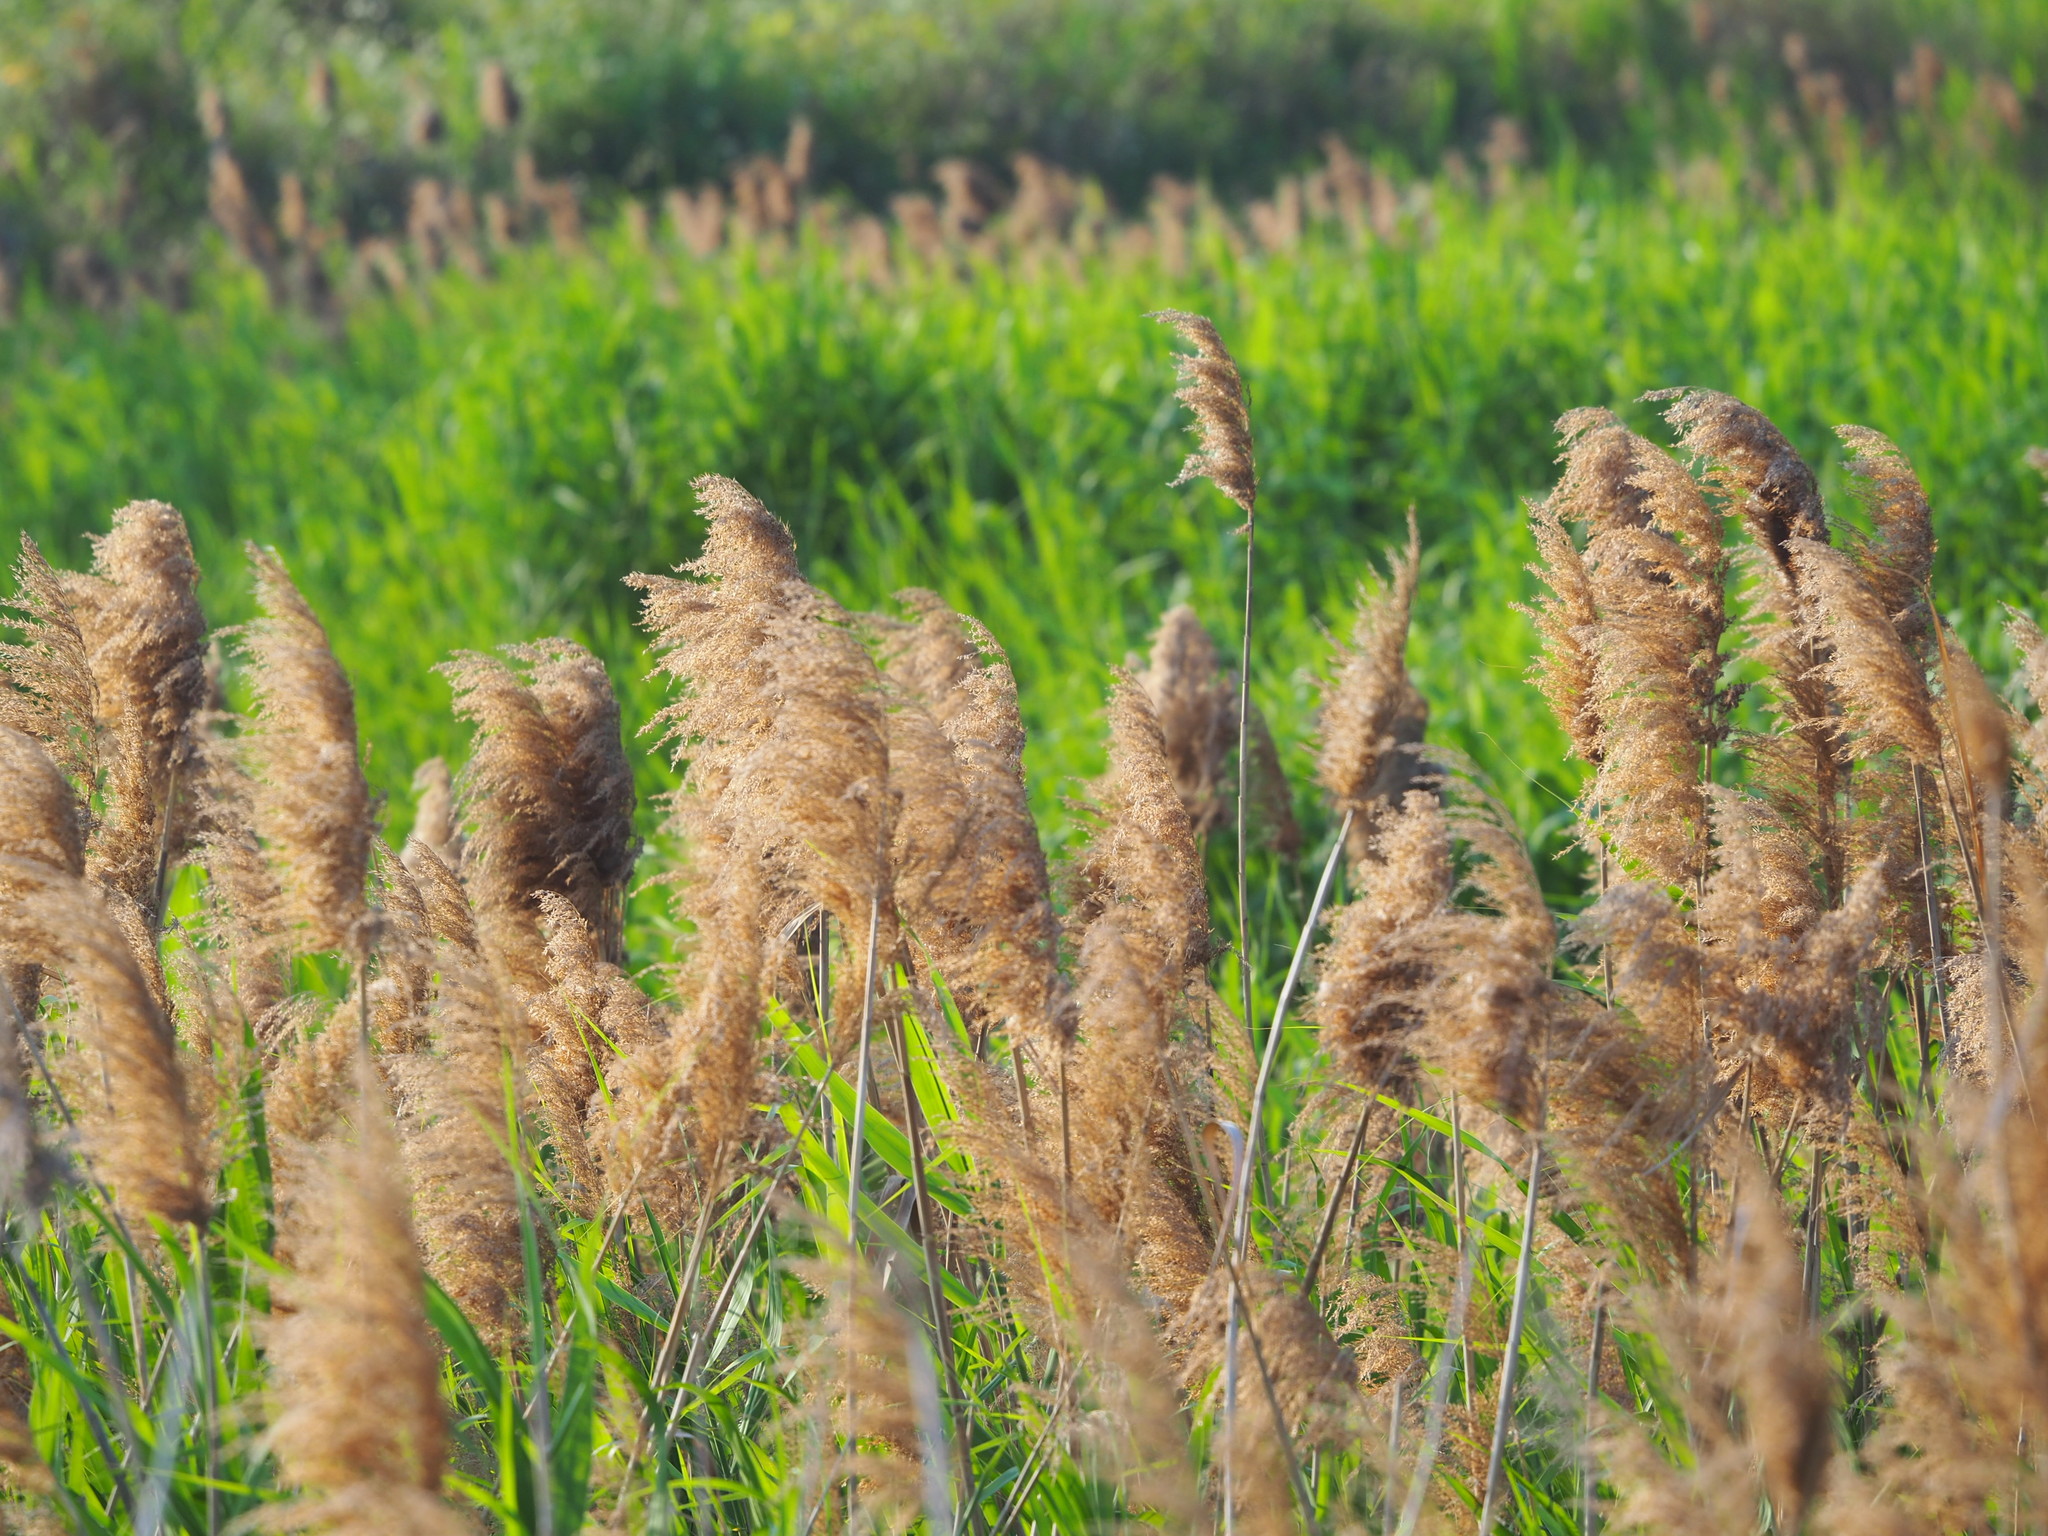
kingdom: Plantae
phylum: Tracheophyta
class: Liliopsida
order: Poales
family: Poaceae
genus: Phragmites
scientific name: Phragmites australis
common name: Common reed
